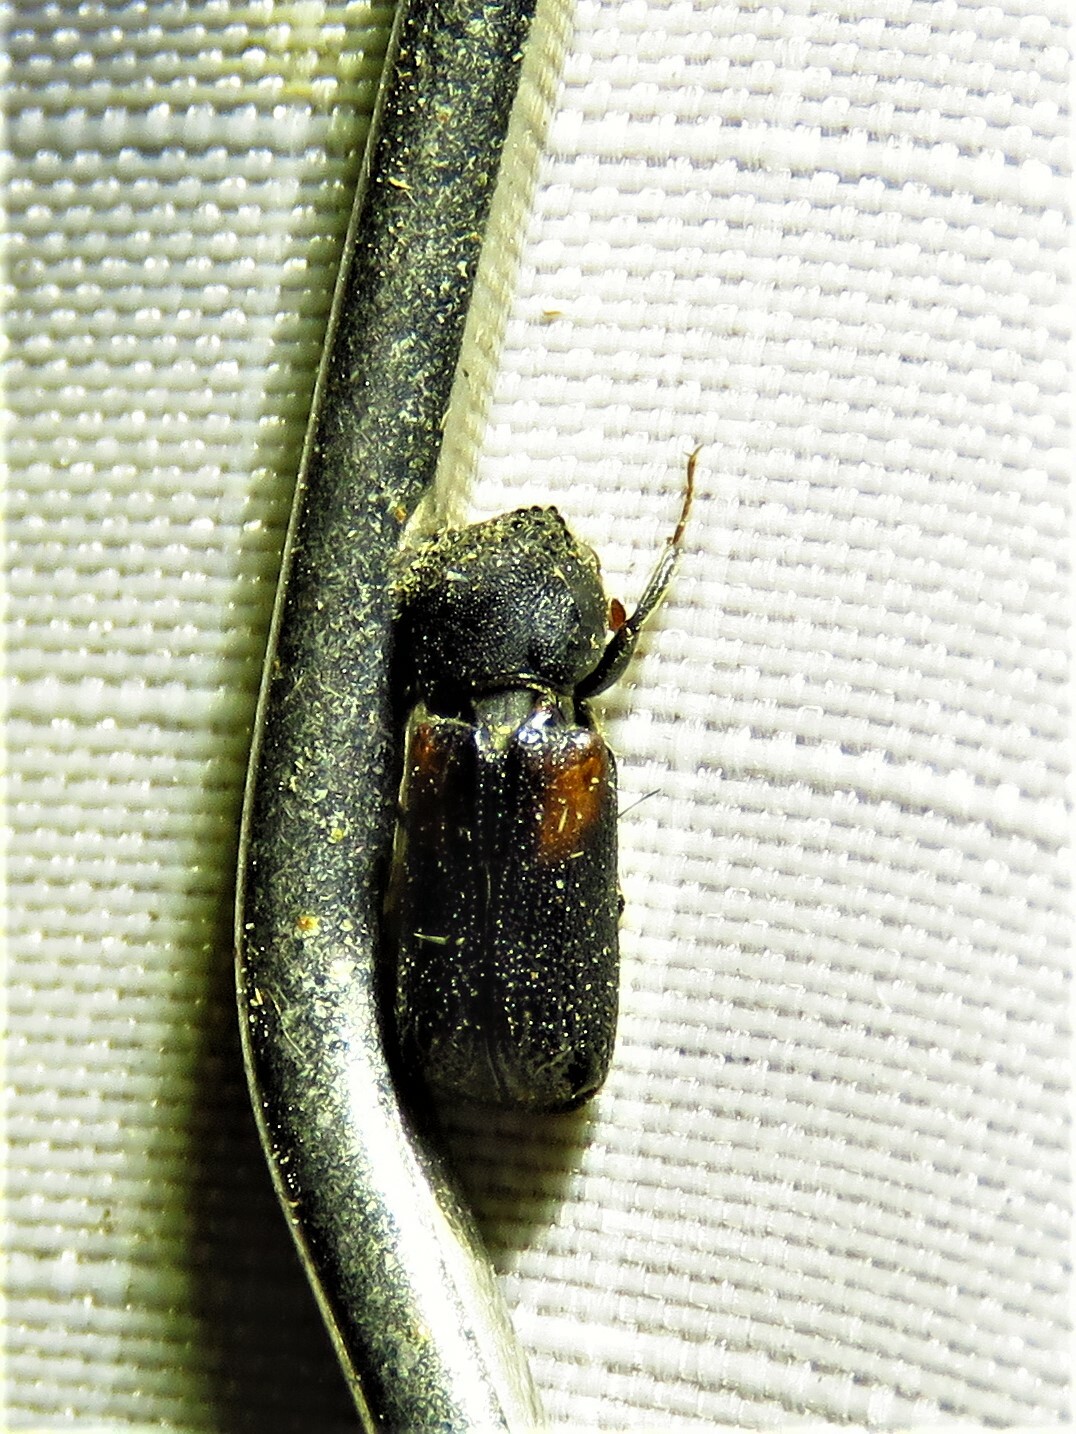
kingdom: Animalia
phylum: Arthropoda
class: Insecta
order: Coleoptera
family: Bostrichidae
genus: Xylobiops
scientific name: Xylobiops basilaris
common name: Red-shouldered bostrichid
